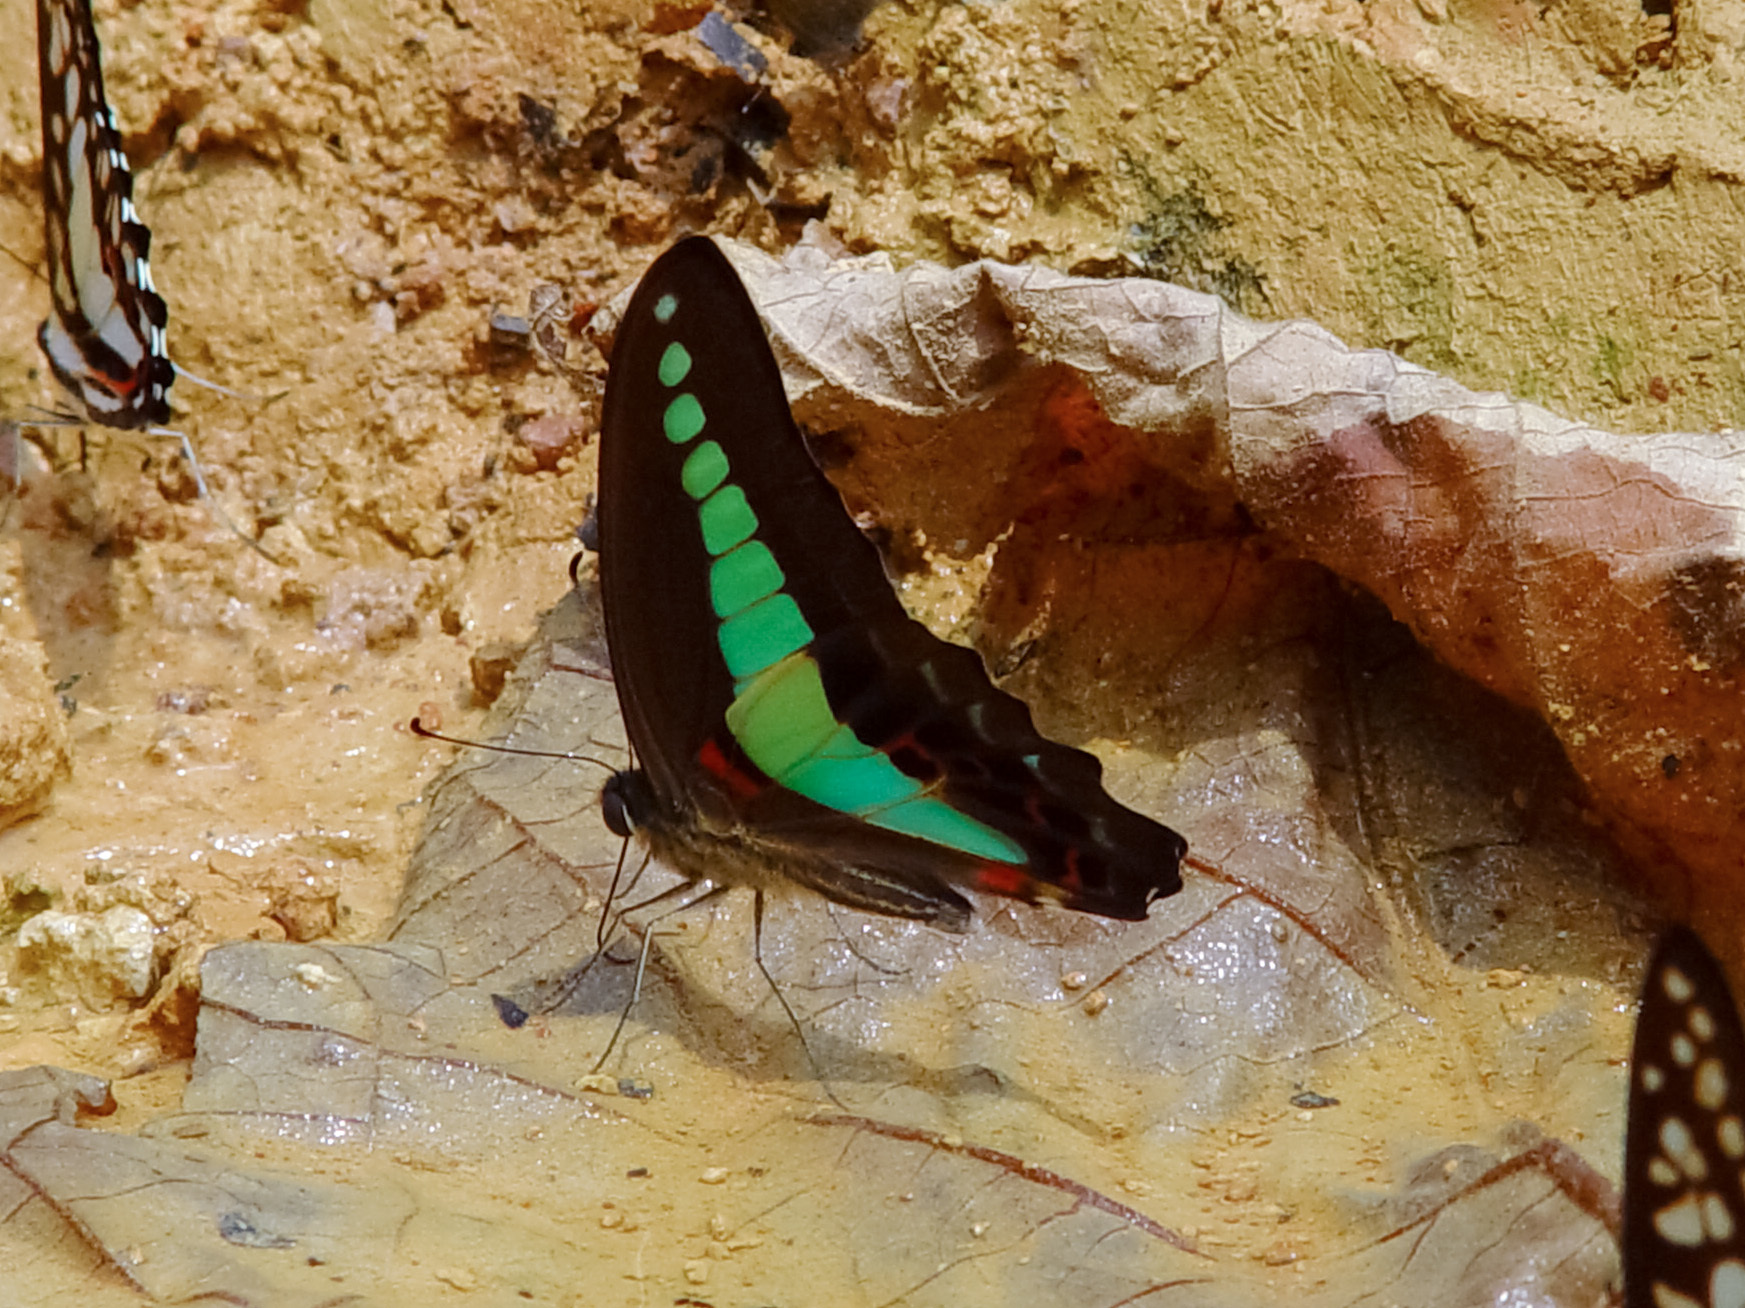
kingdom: Fungi
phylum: Ascomycota
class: Sordariomycetes
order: Microascales
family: Microascaceae
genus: Graphium
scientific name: Graphium sarpedon
